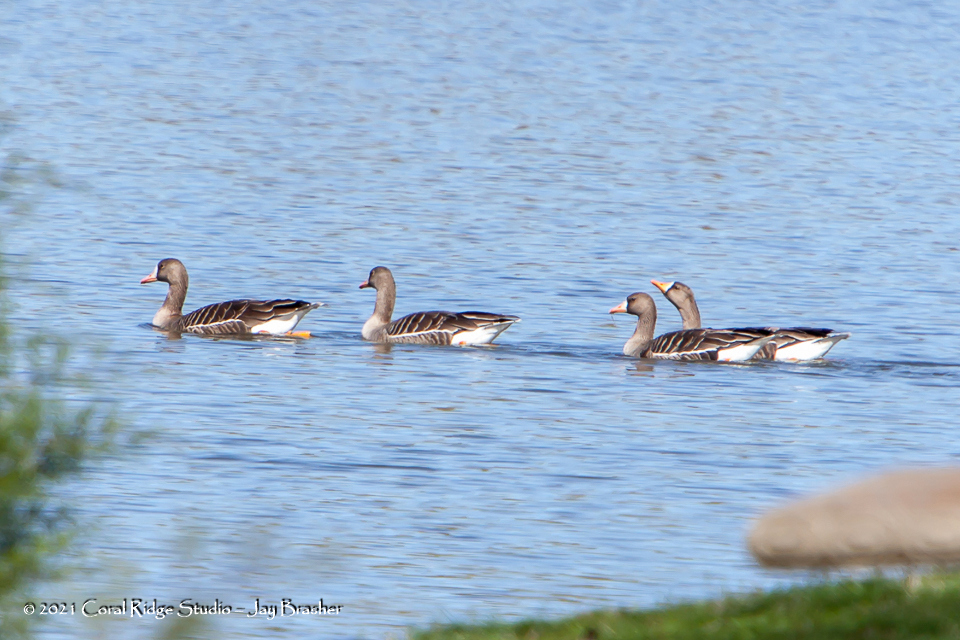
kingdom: Animalia
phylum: Chordata
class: Aves
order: Anseriformes
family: Anatidae
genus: Anser
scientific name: Anser albifrons
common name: Greater white-fronted goose
